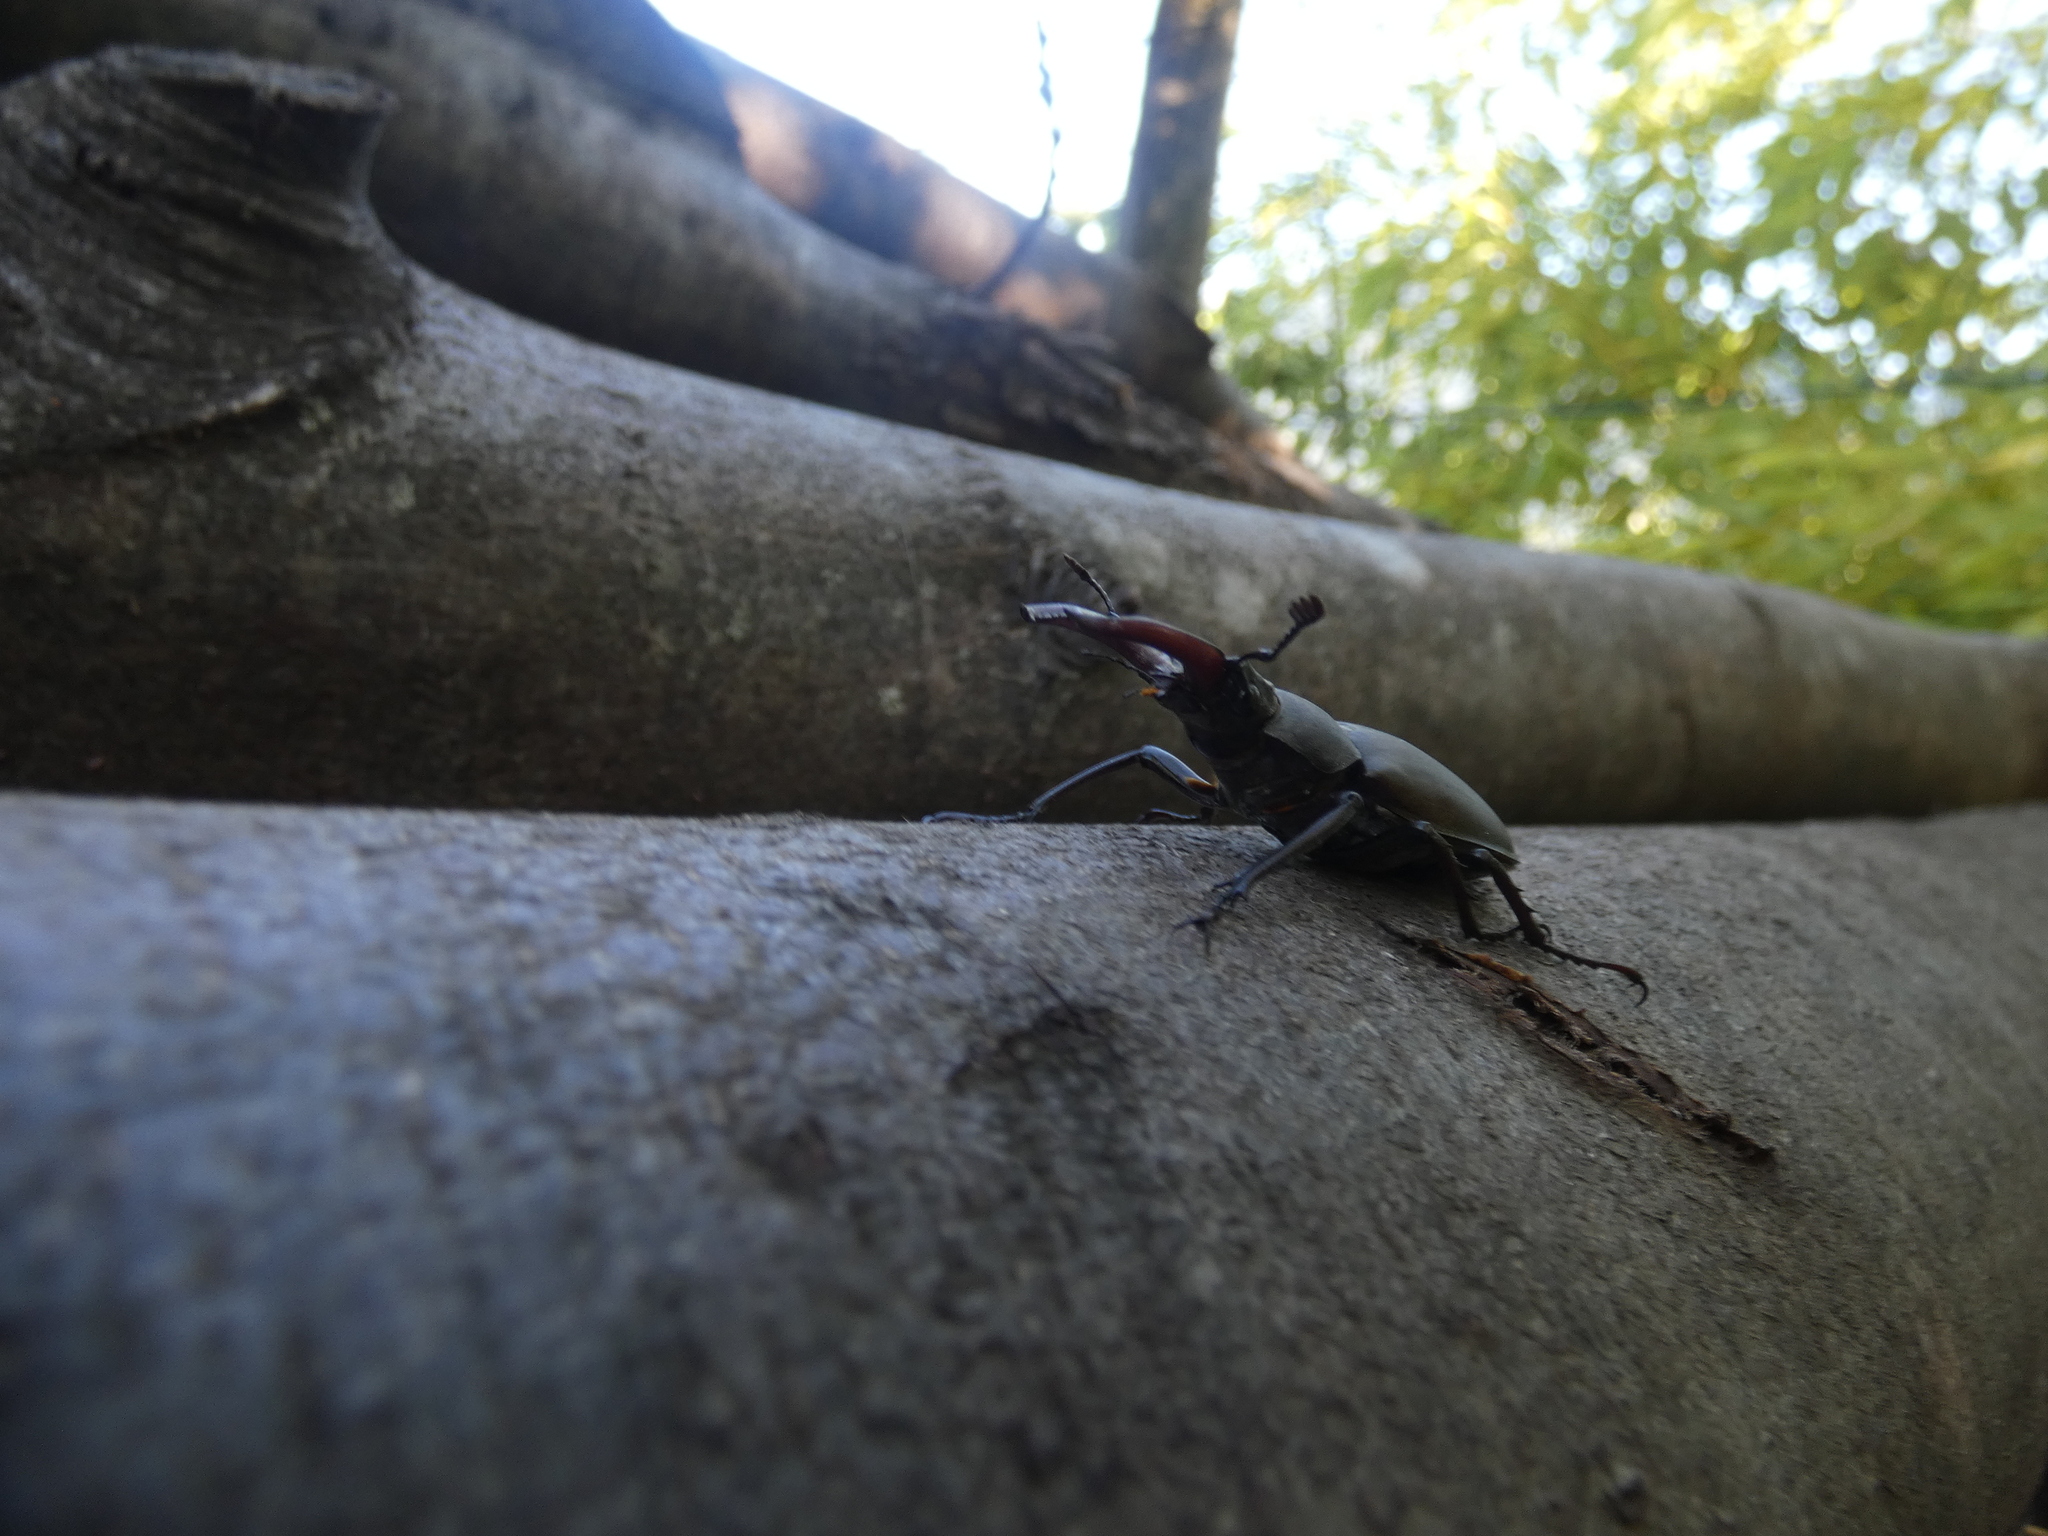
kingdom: Animalia
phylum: Arthropoda
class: Insecta
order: Coleoptera
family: Lucanidae
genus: Lucanus
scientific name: Lucanus cervus
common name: Stag beetle
